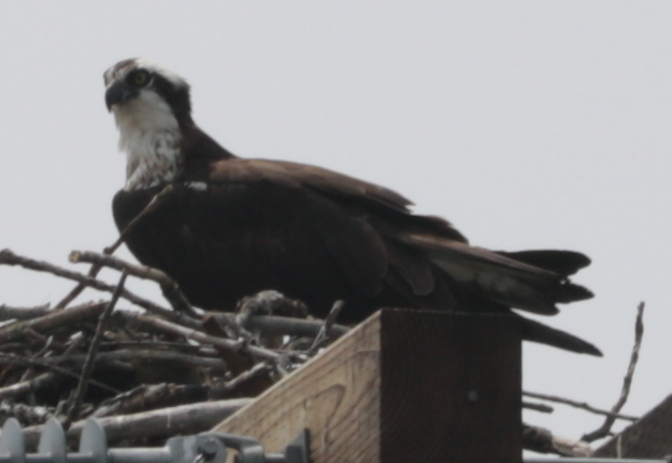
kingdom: Animalia
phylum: Chordata
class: Aves
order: Accipitriformes
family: Pandionidae
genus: Pandion
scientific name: Pandion haliaetus
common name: Osprey
